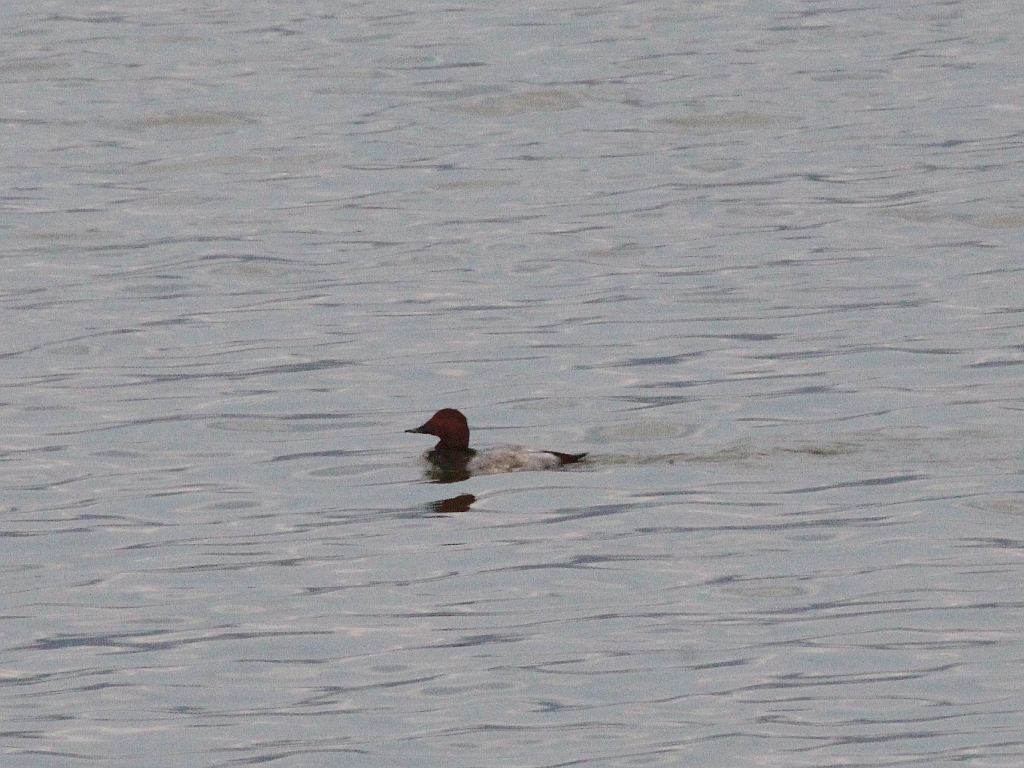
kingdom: Animalia
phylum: Chordata
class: Aves
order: Anseriformes
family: Anatidae
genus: Aythya
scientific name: Aythya ferina
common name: Common pochard
